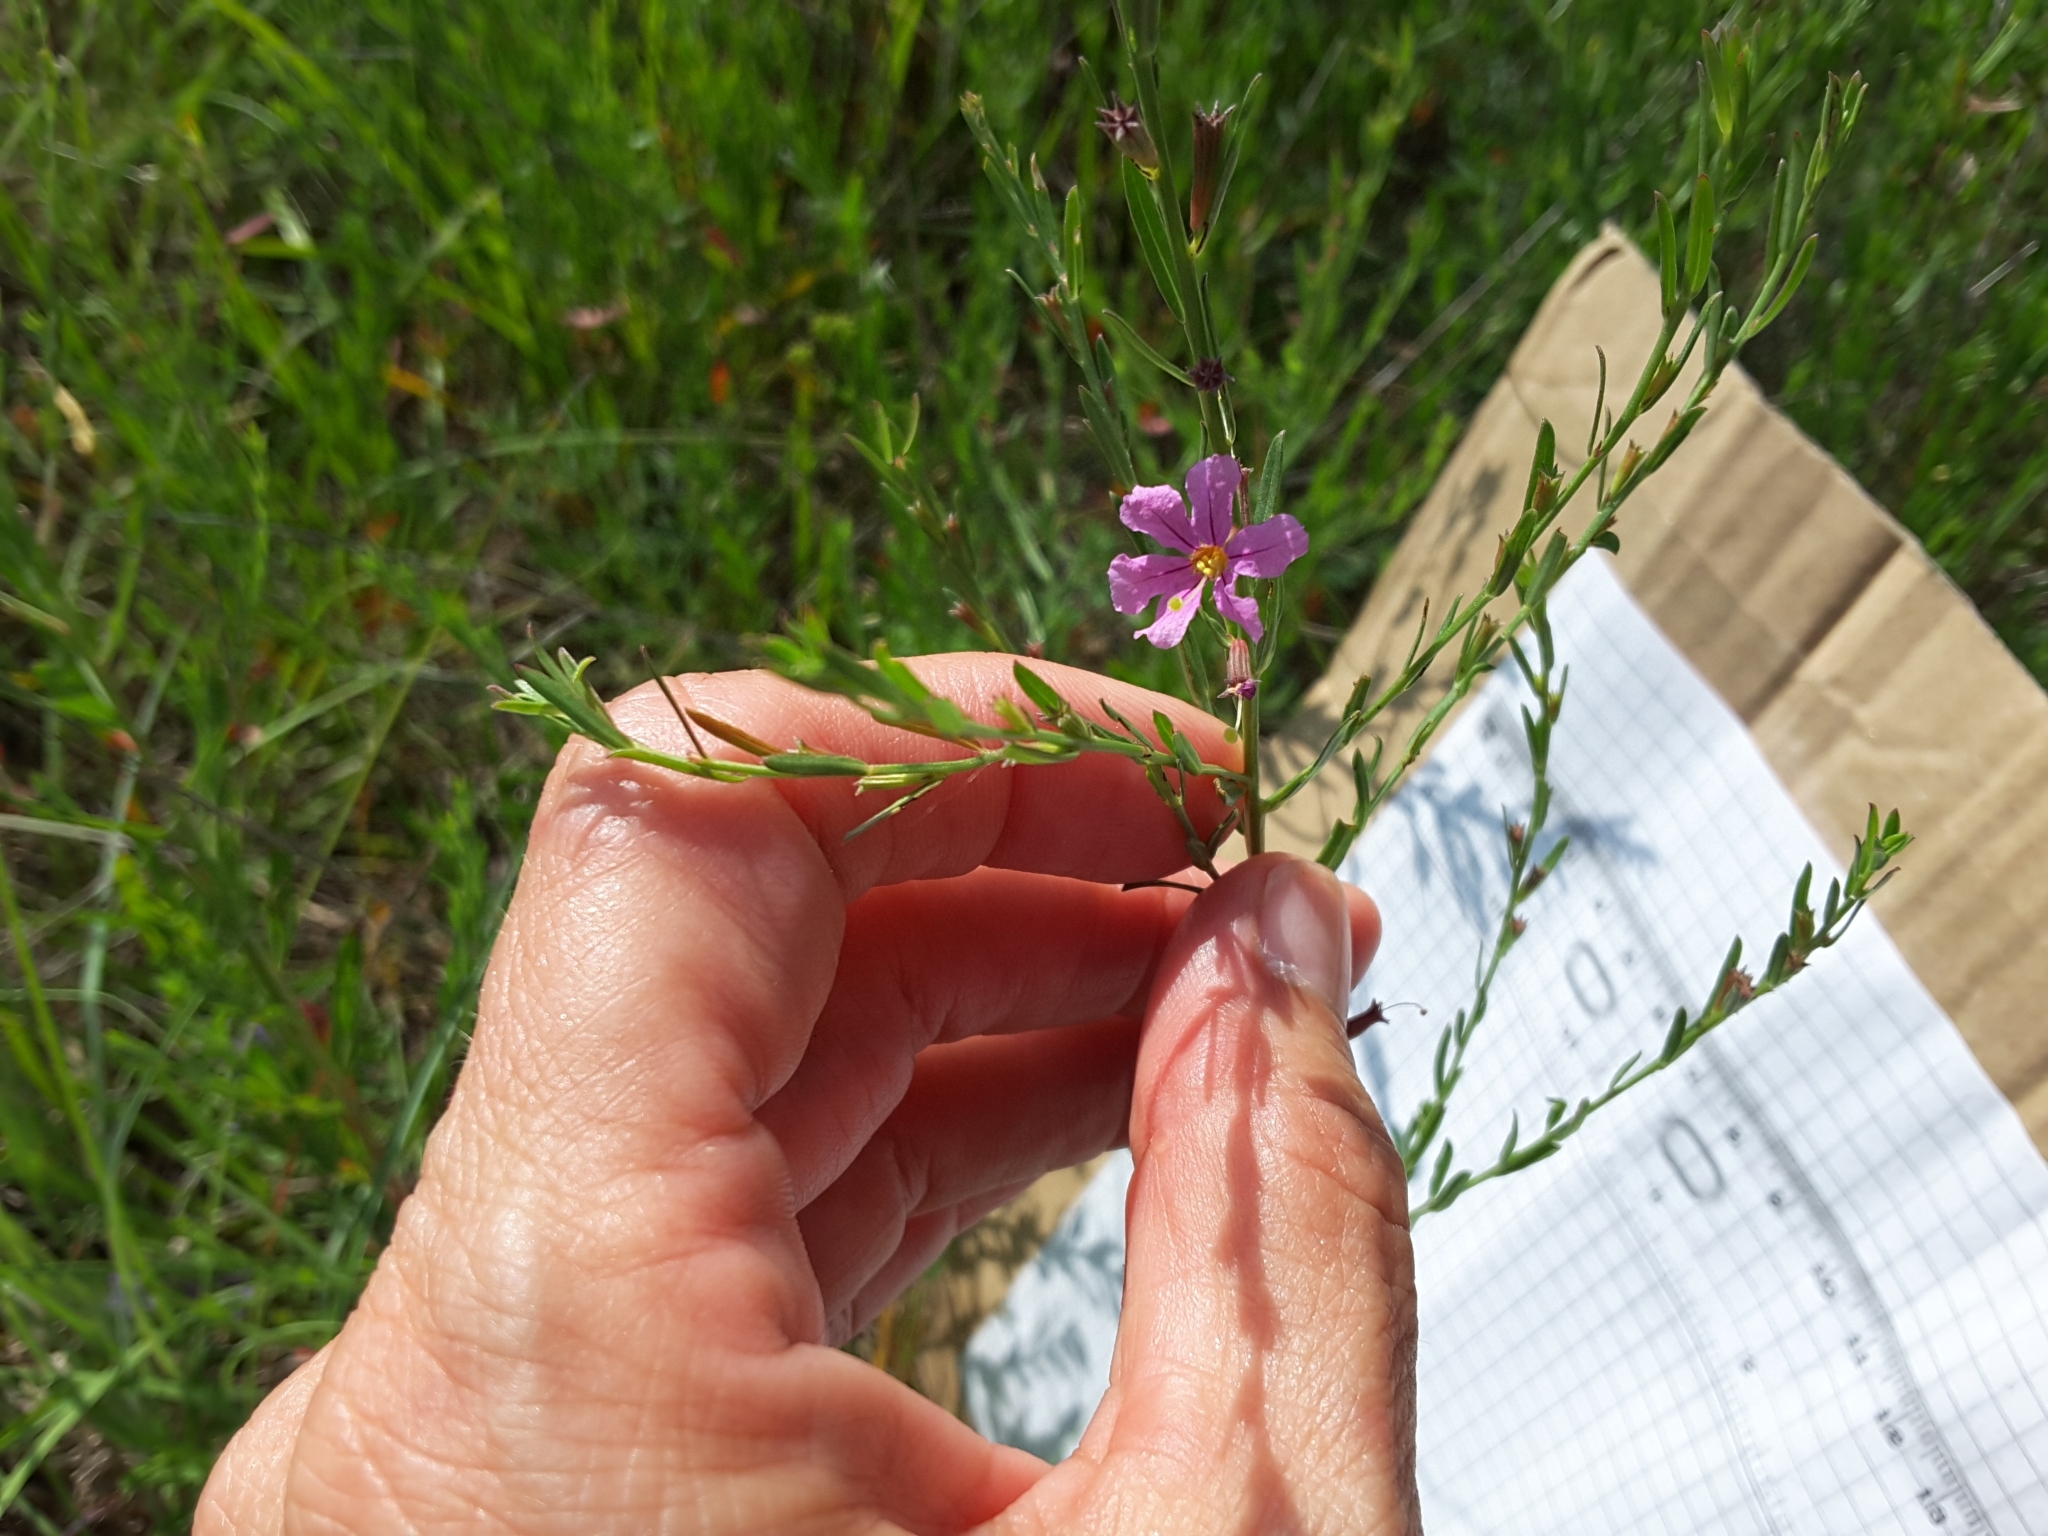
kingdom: Plantae
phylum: Tracheophyta
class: Magnoliopsida
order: Myrtales
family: Lythraceae
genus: Lythrum
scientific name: Lythrum californicum
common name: California loosestrife
